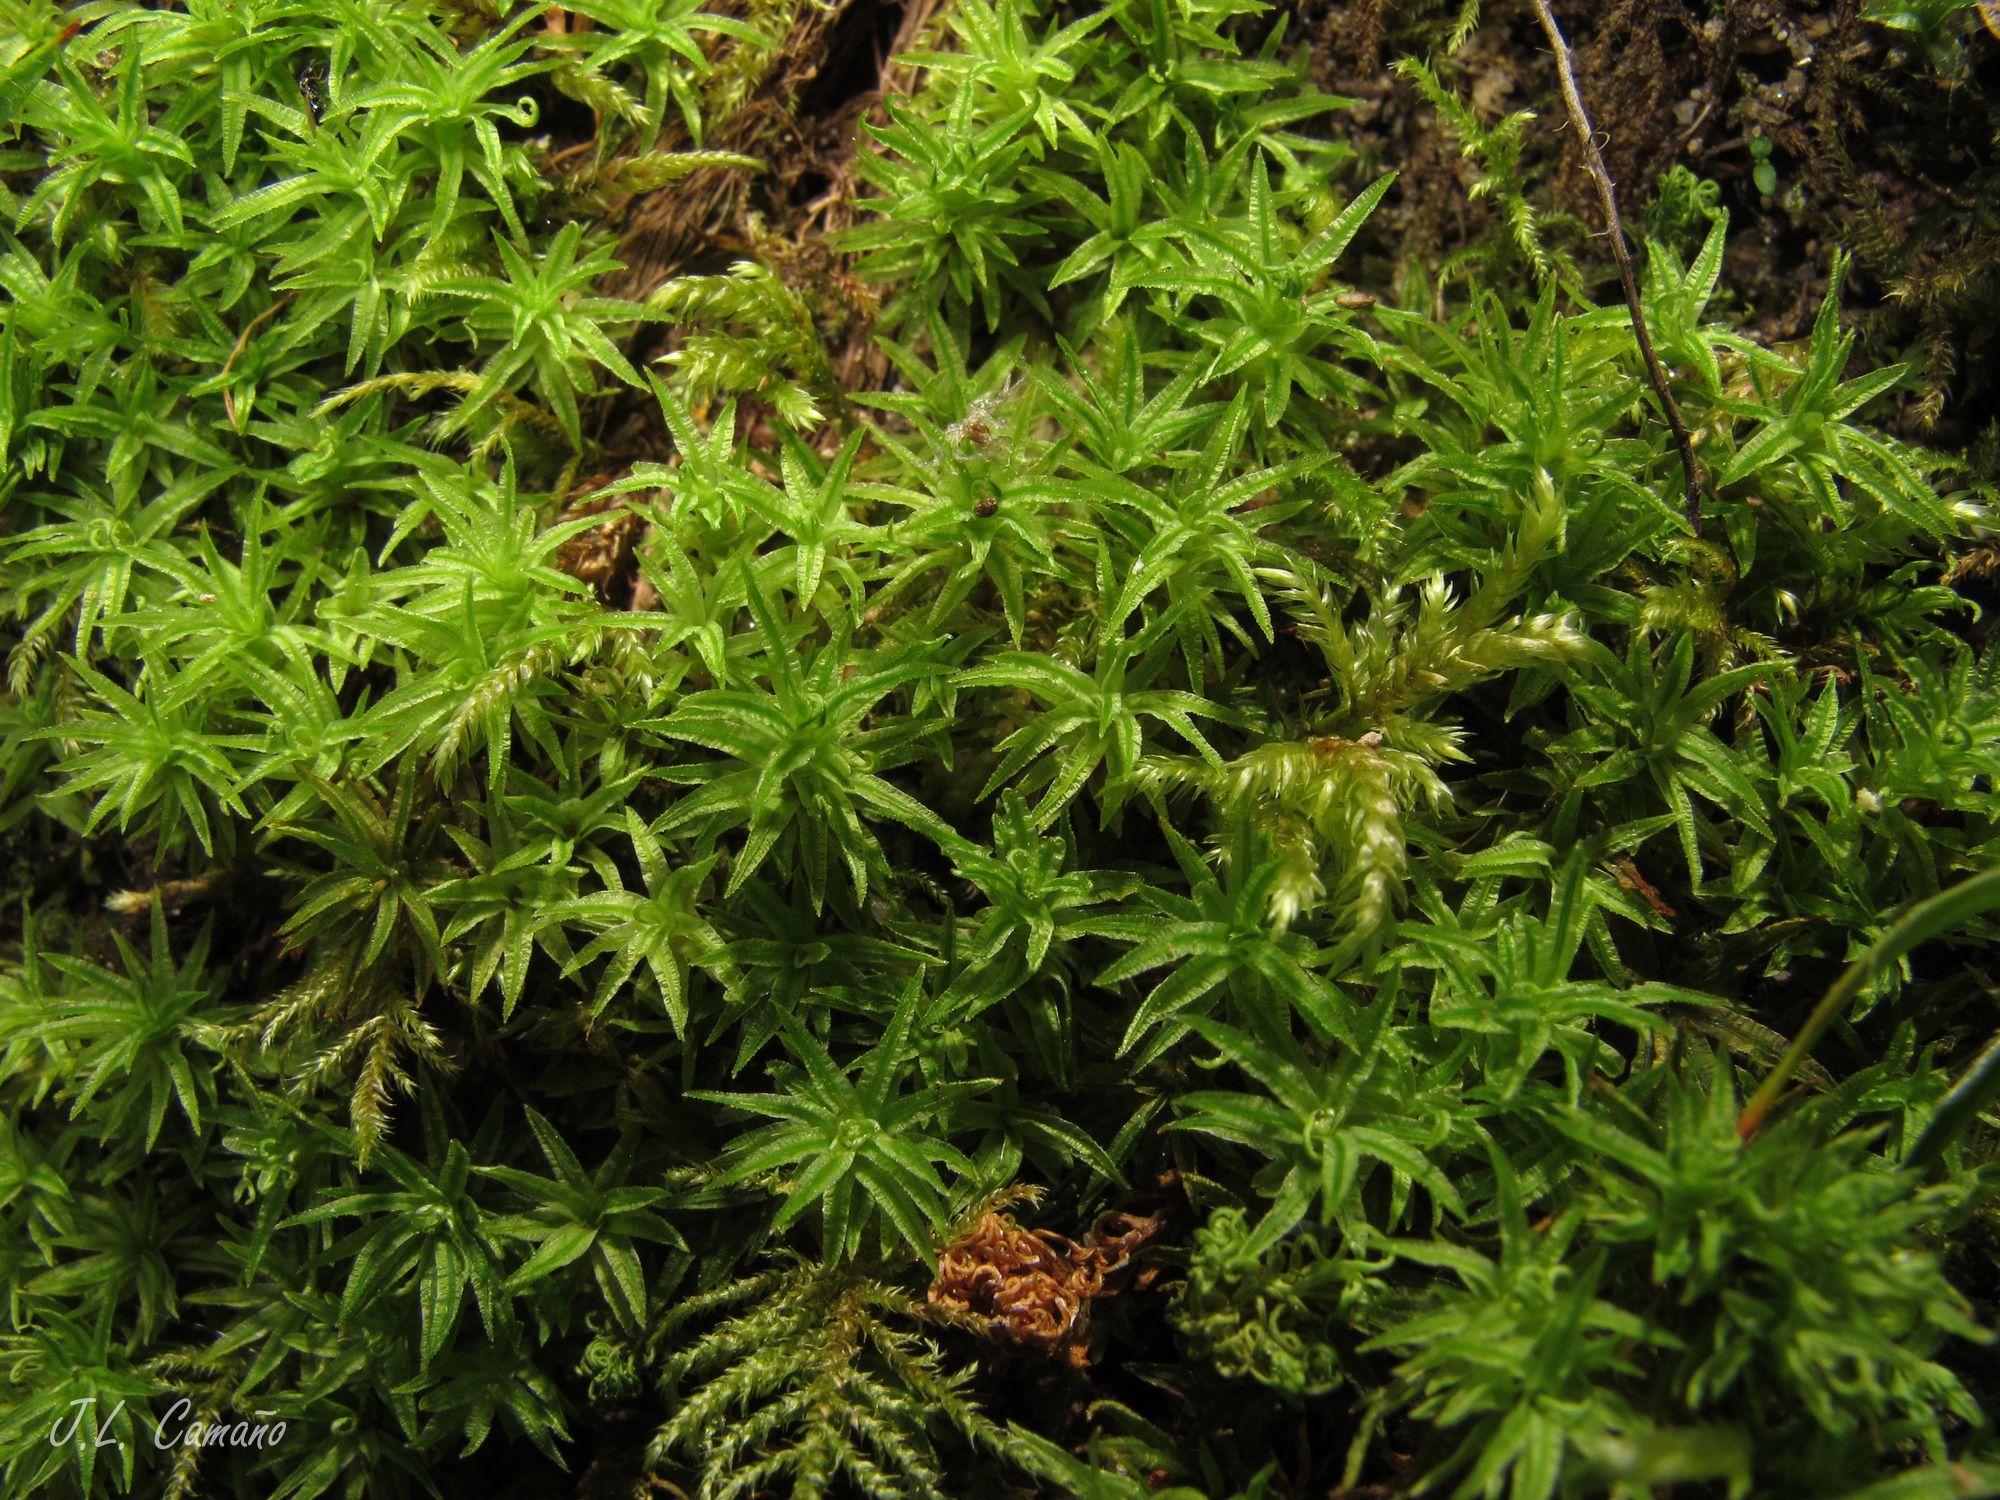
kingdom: Plantae
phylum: Bryophyta
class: Polytrichopsida
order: Polytrichales
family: Polytrichaceae
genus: Atrichum
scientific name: Atrichum undulatum
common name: Common smoothcap
